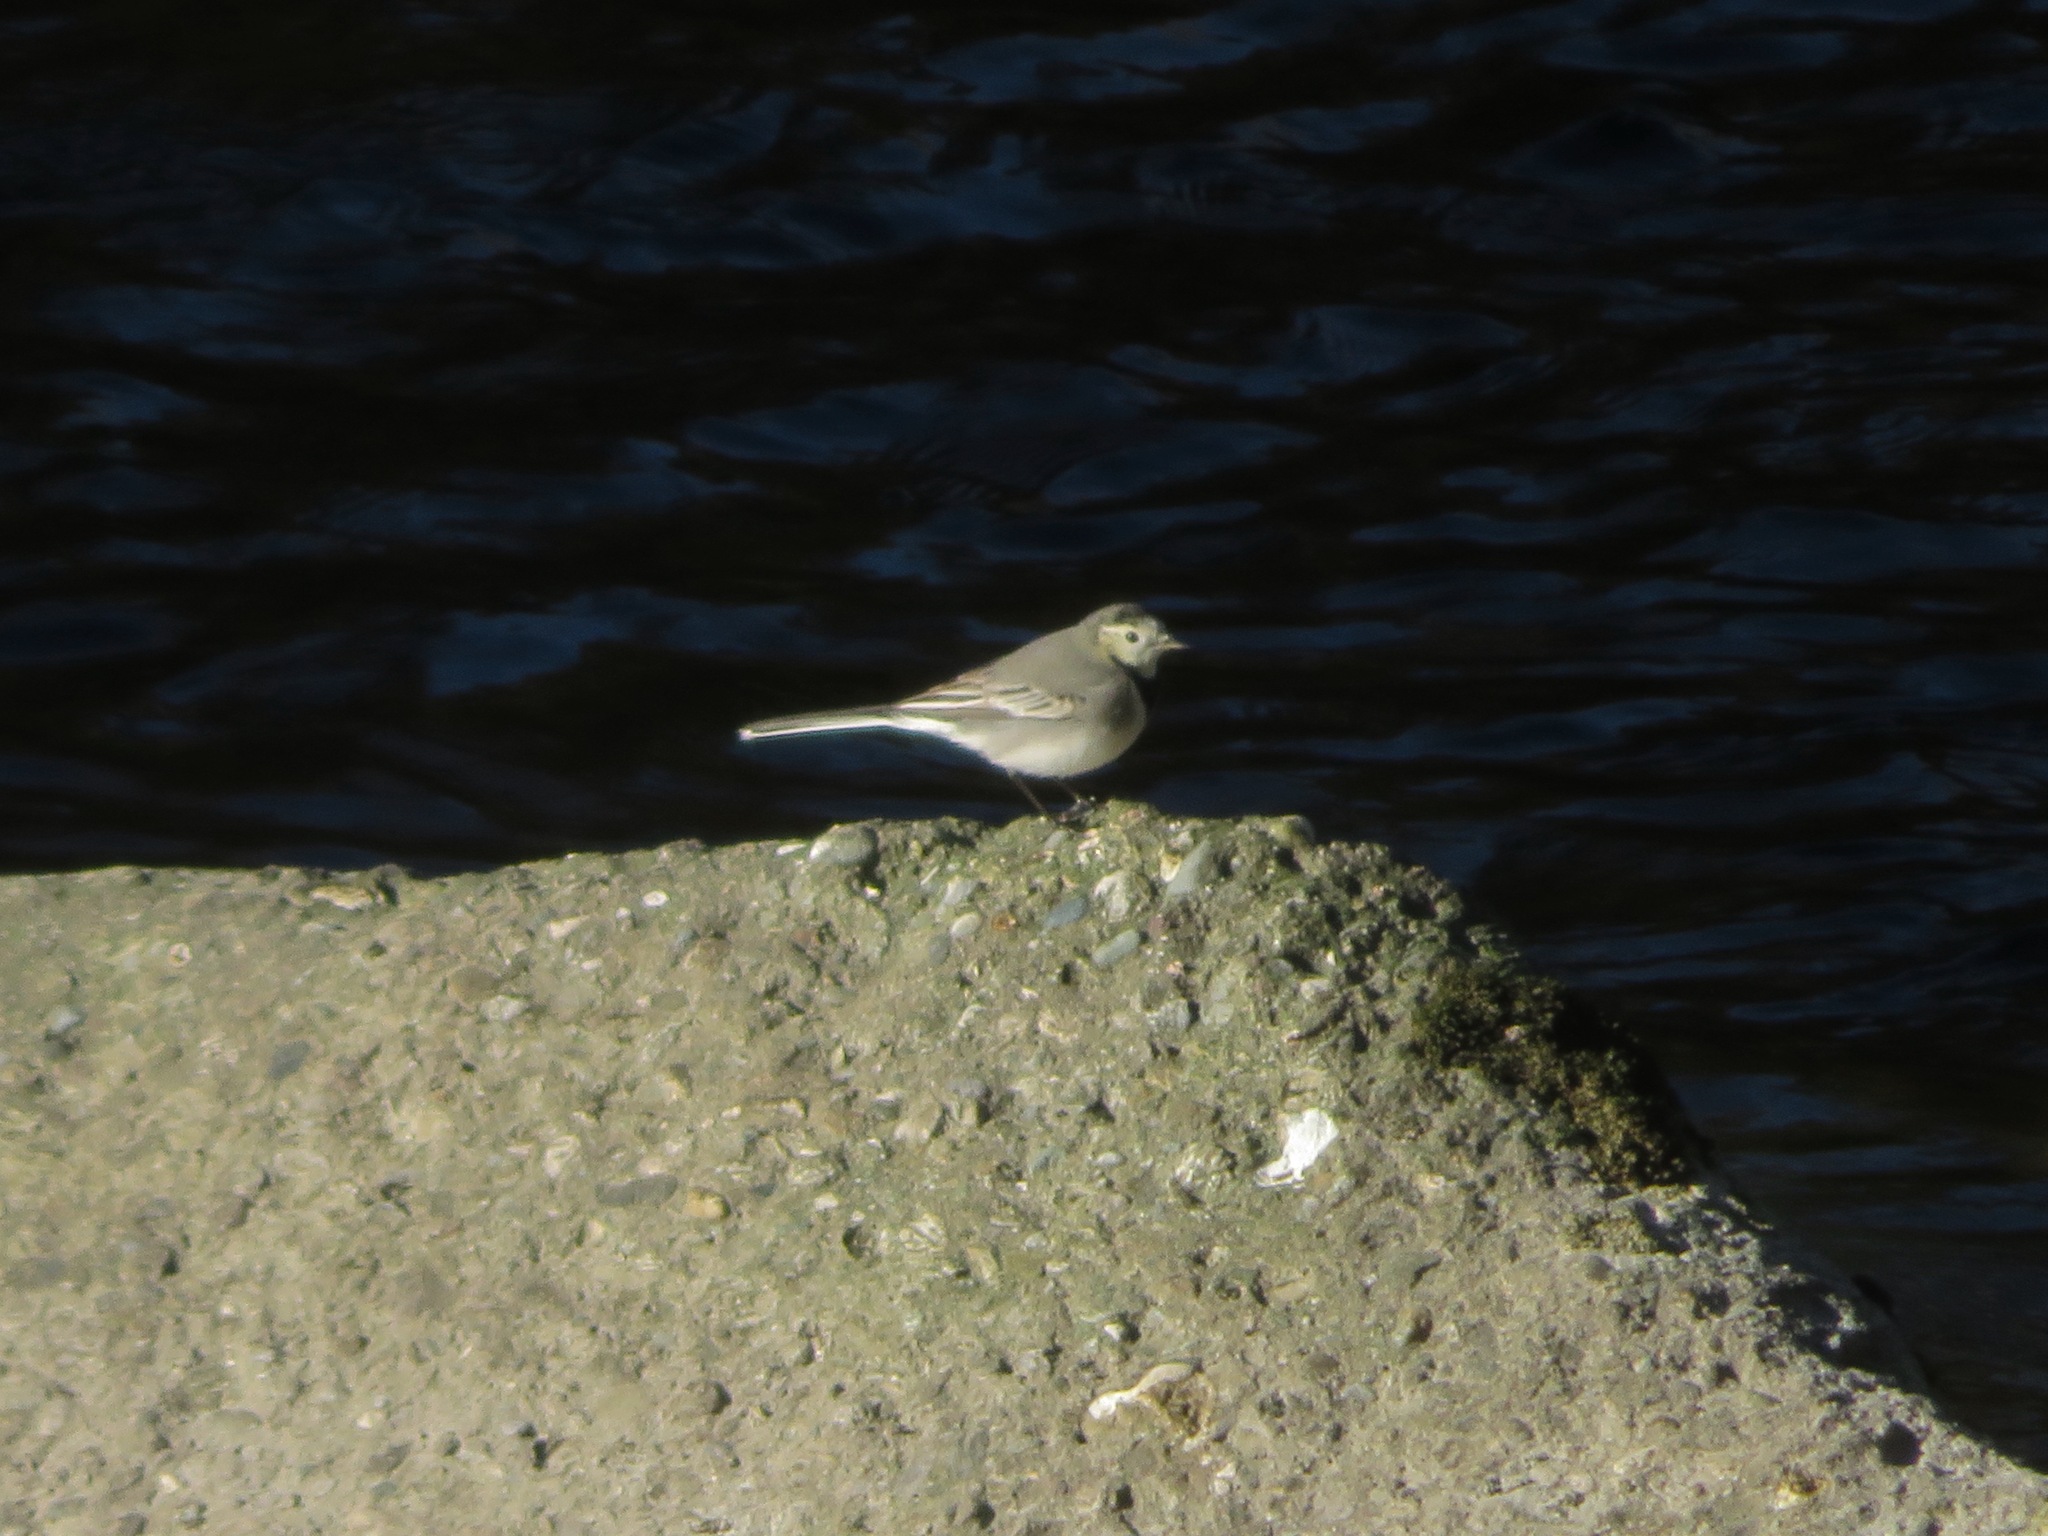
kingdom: Animalia
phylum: Chordata
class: Aves
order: Passeriformes
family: Motacillidae
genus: Motacilla
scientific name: Motacilla alba
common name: White wagtail
